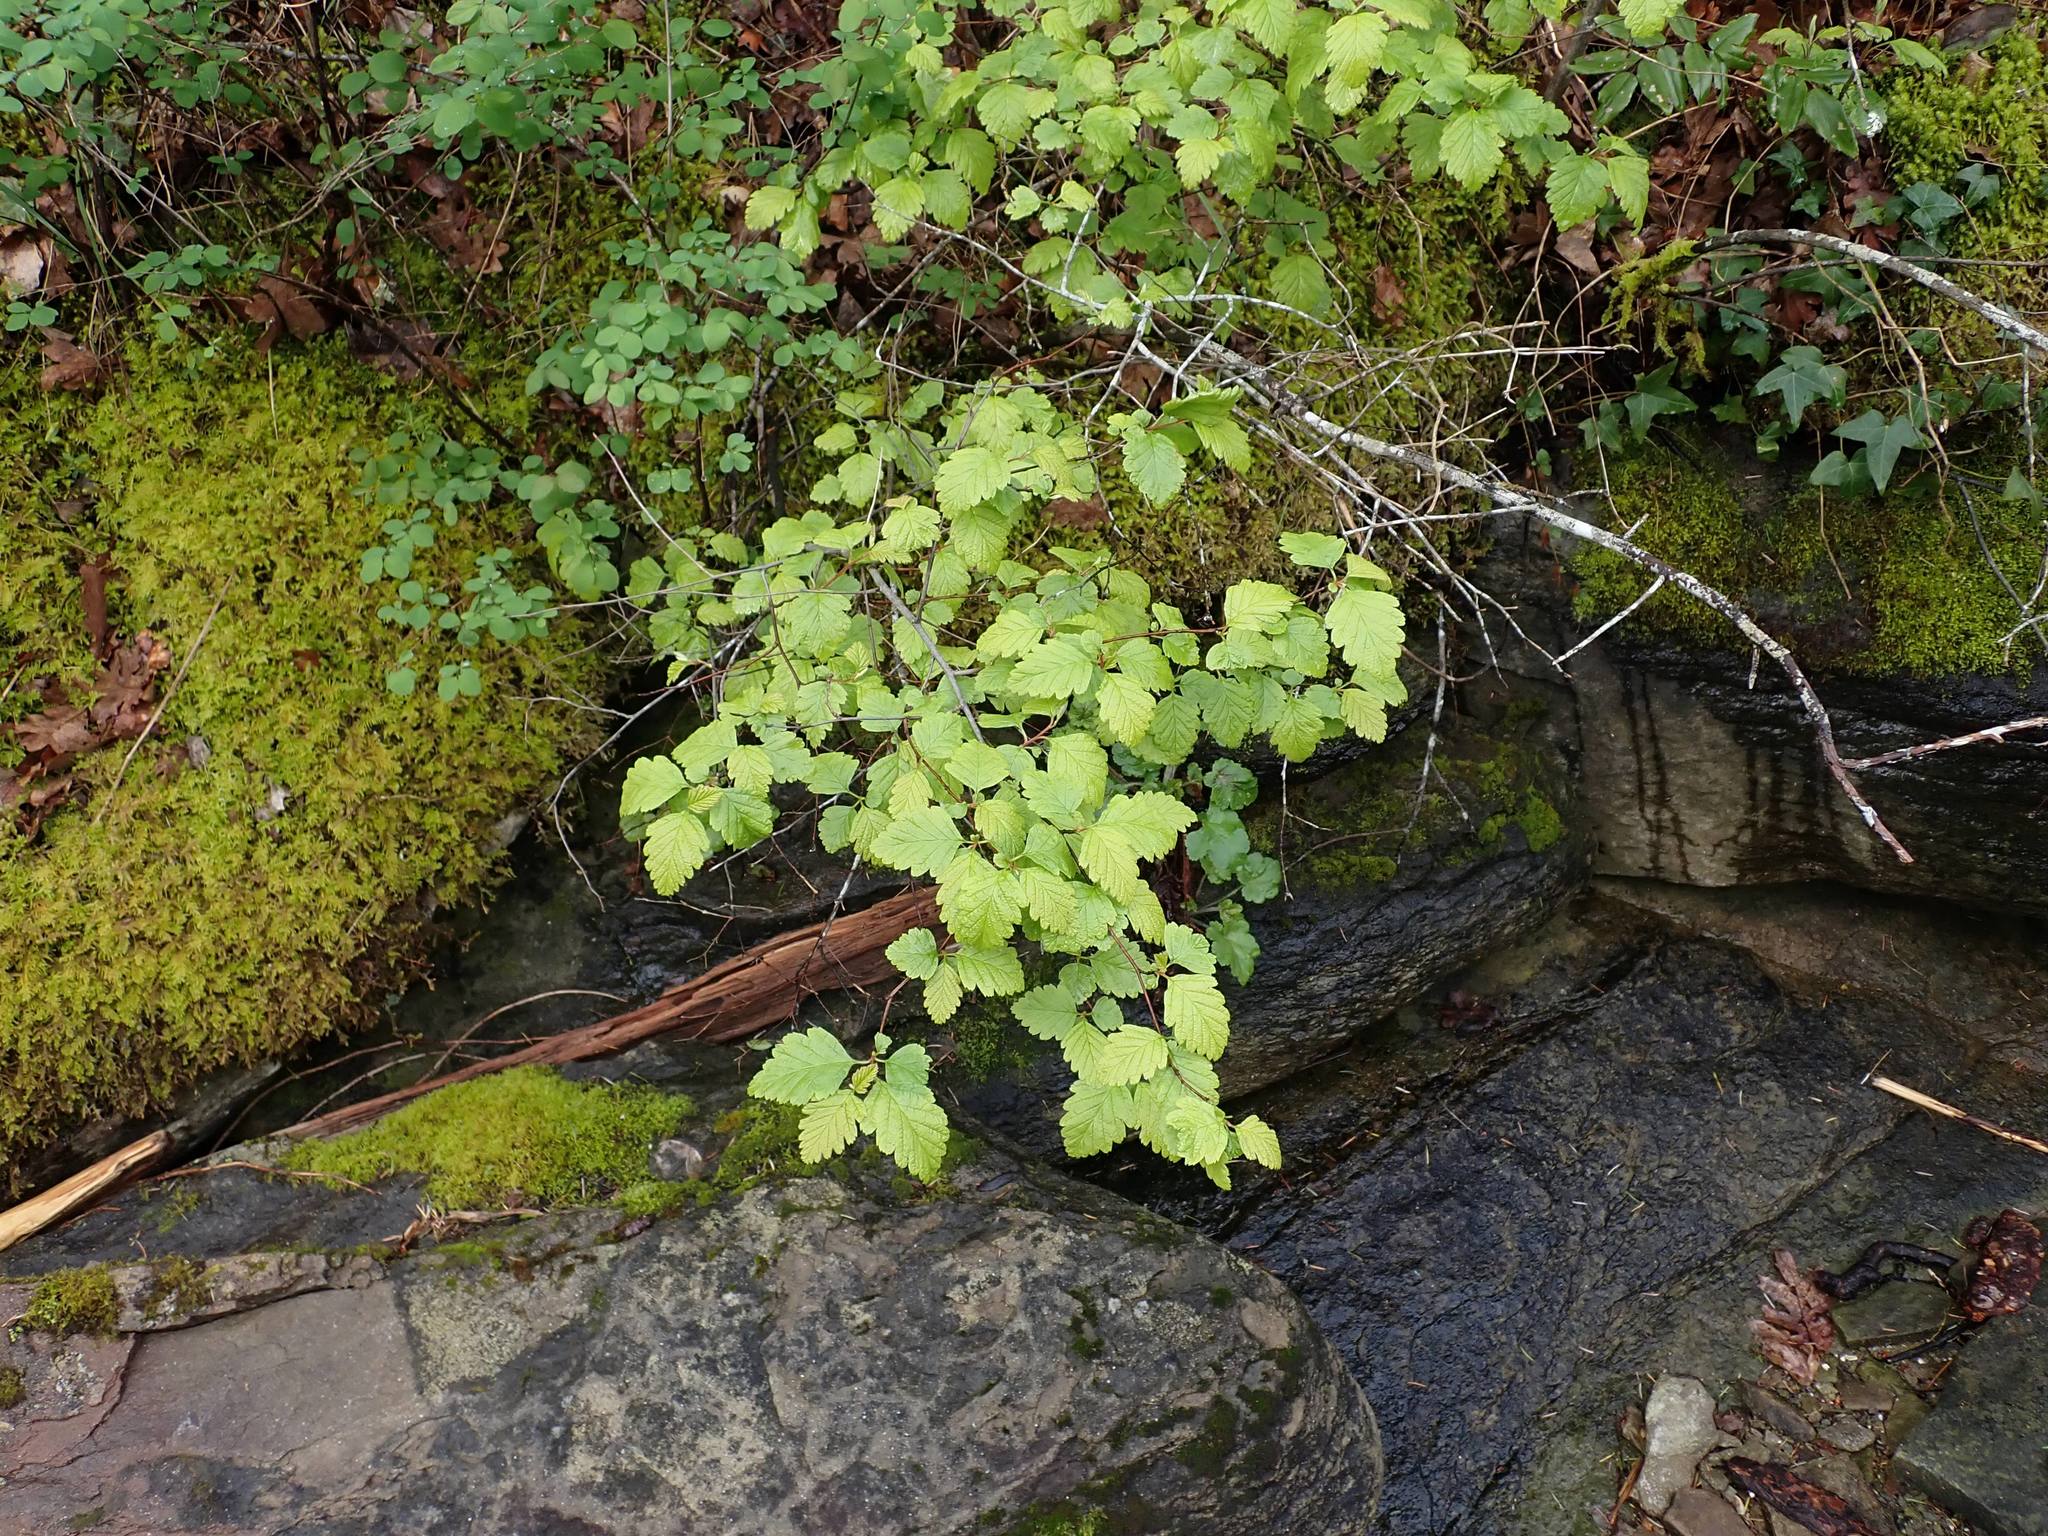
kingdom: Plantae
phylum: Tracheophyta
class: Magnoliopsida
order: Rosales
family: Rosaceae
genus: Holodiscus
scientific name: Holodiscus discolor
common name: Oceanspray
